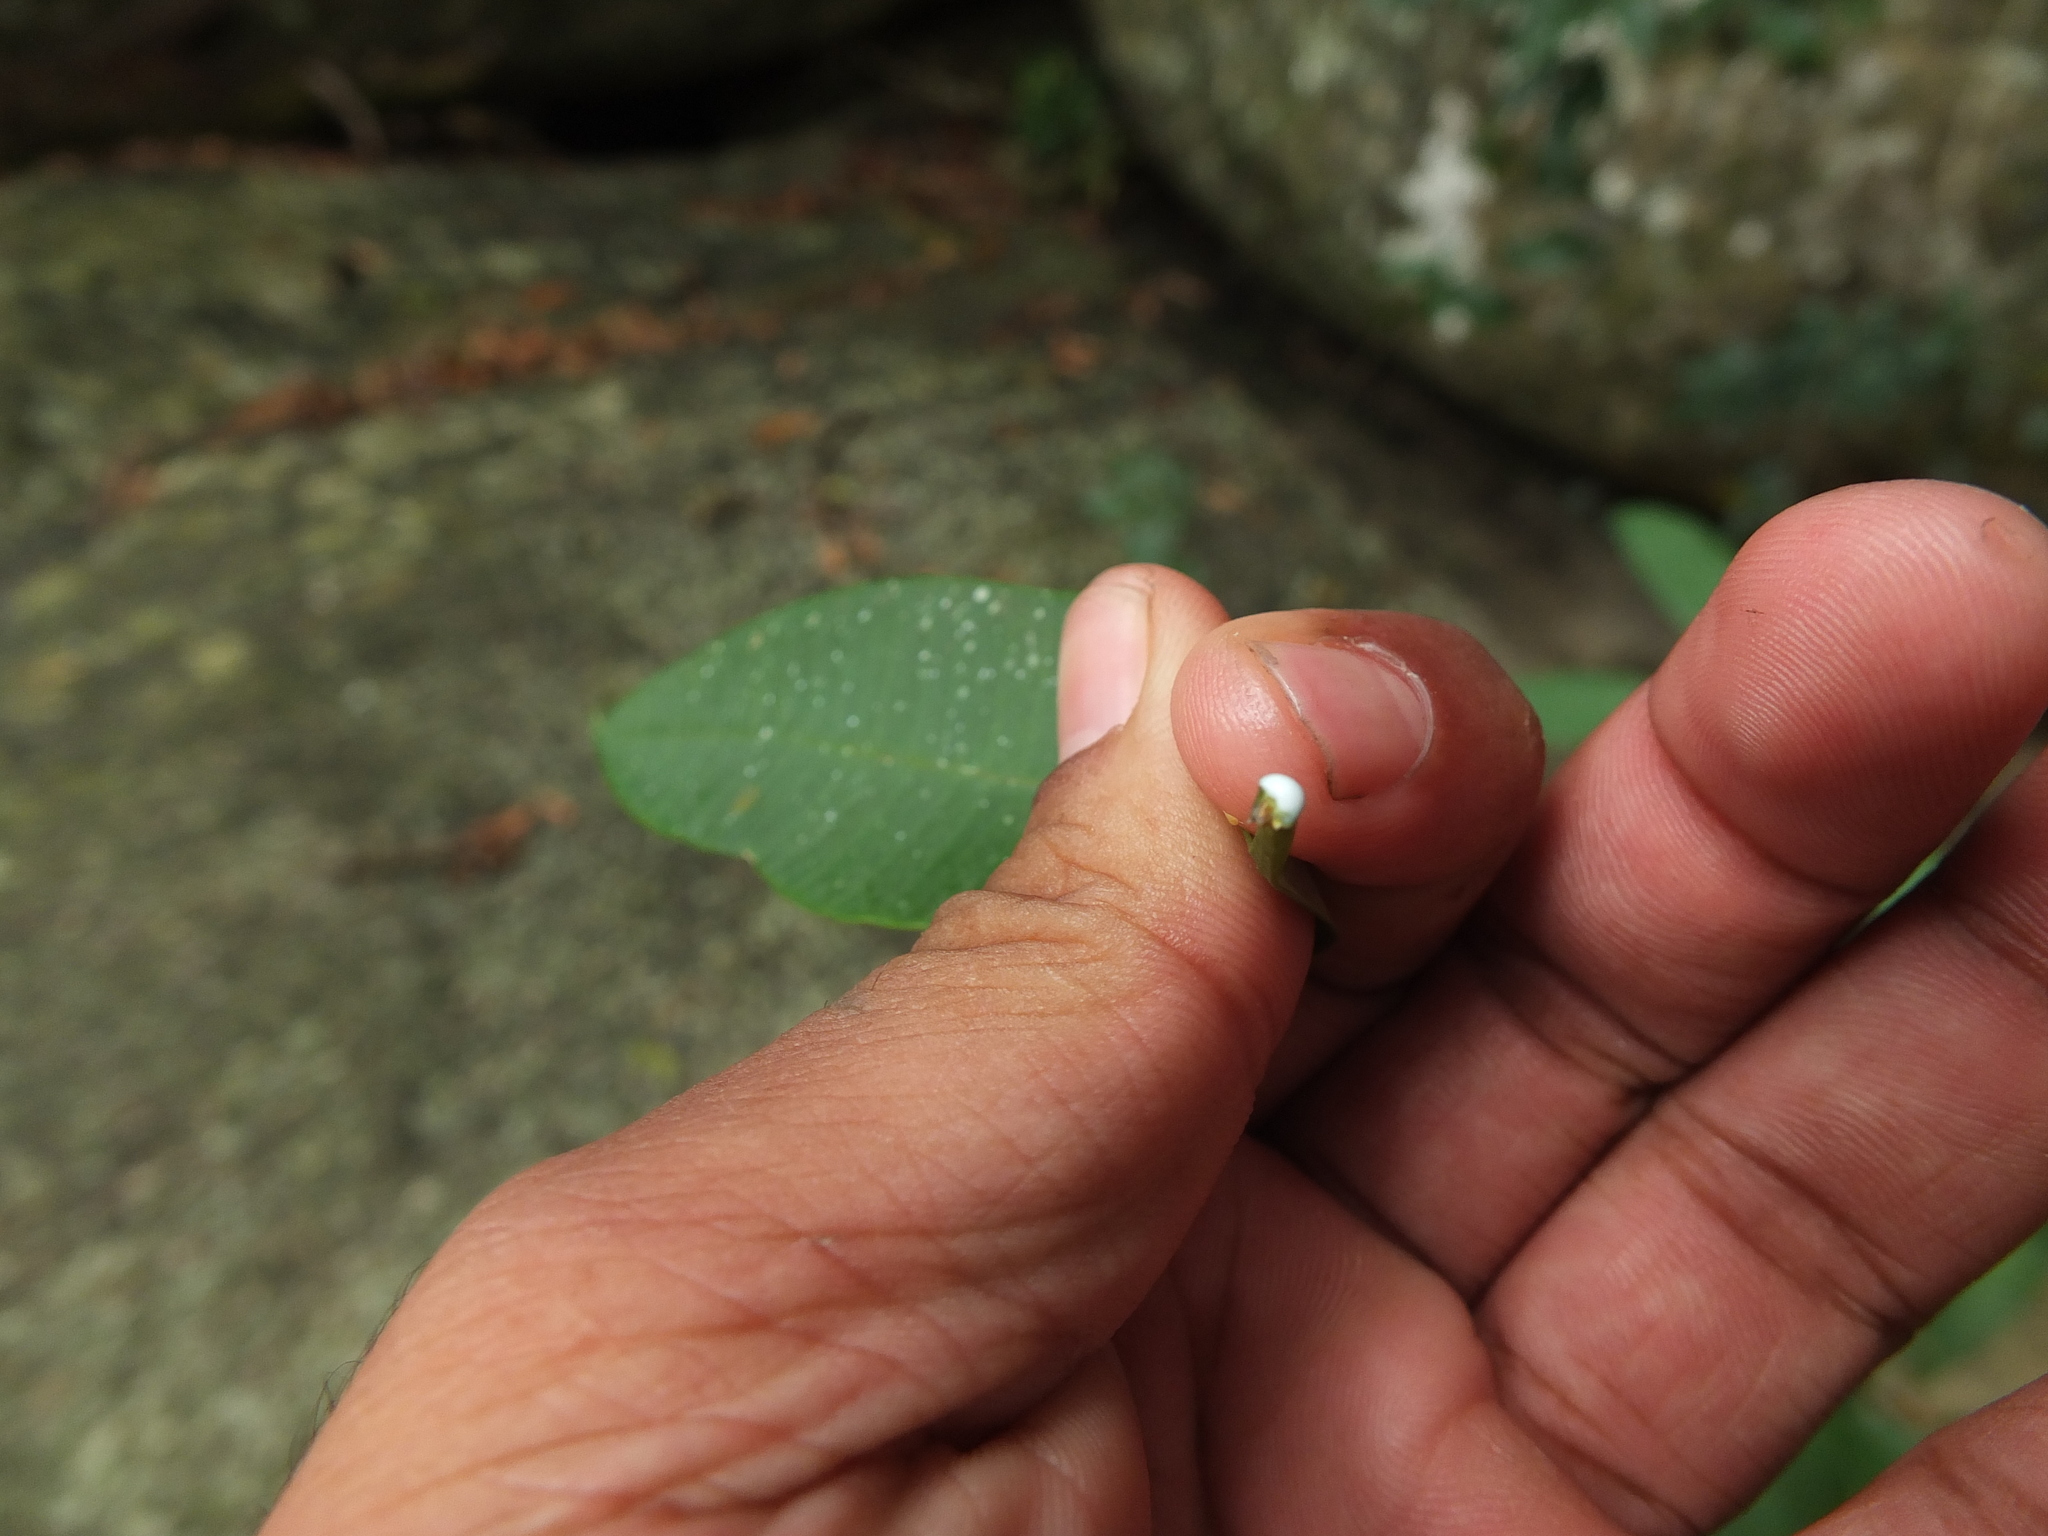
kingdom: Plantae
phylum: Tracheophyta
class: Magnoliopsida
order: Gentianales
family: Apocynaceae
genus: Alstonia
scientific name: Alstonia scholaris
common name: White cheesewood
